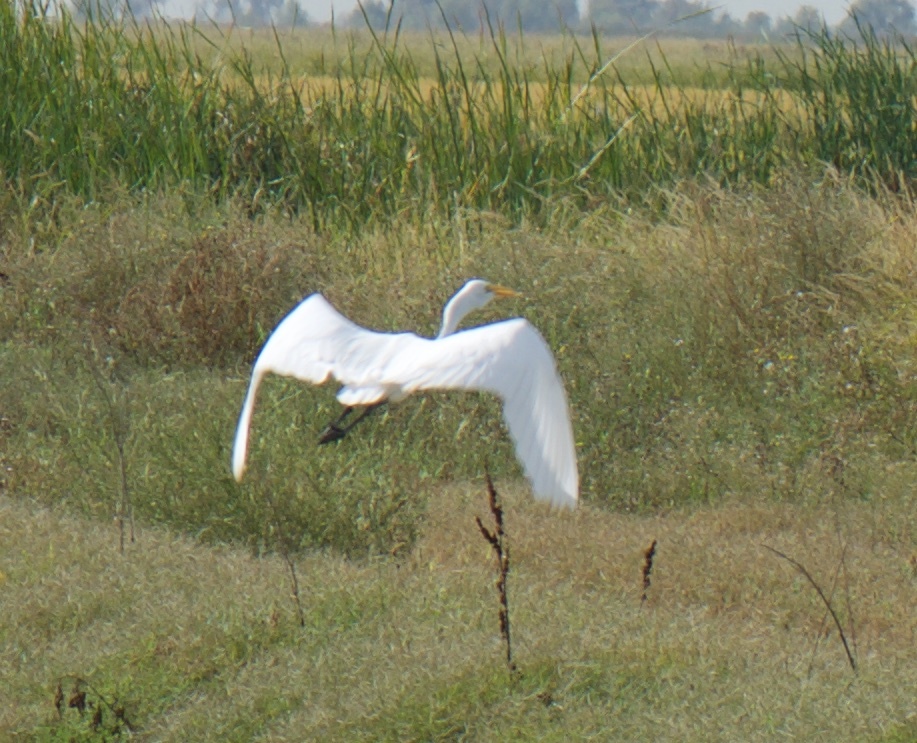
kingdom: Animalia
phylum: Chordata
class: Aves
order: Pelecaniformes
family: Ardeidae
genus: Ardea
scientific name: Ardea alba
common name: Great egret
